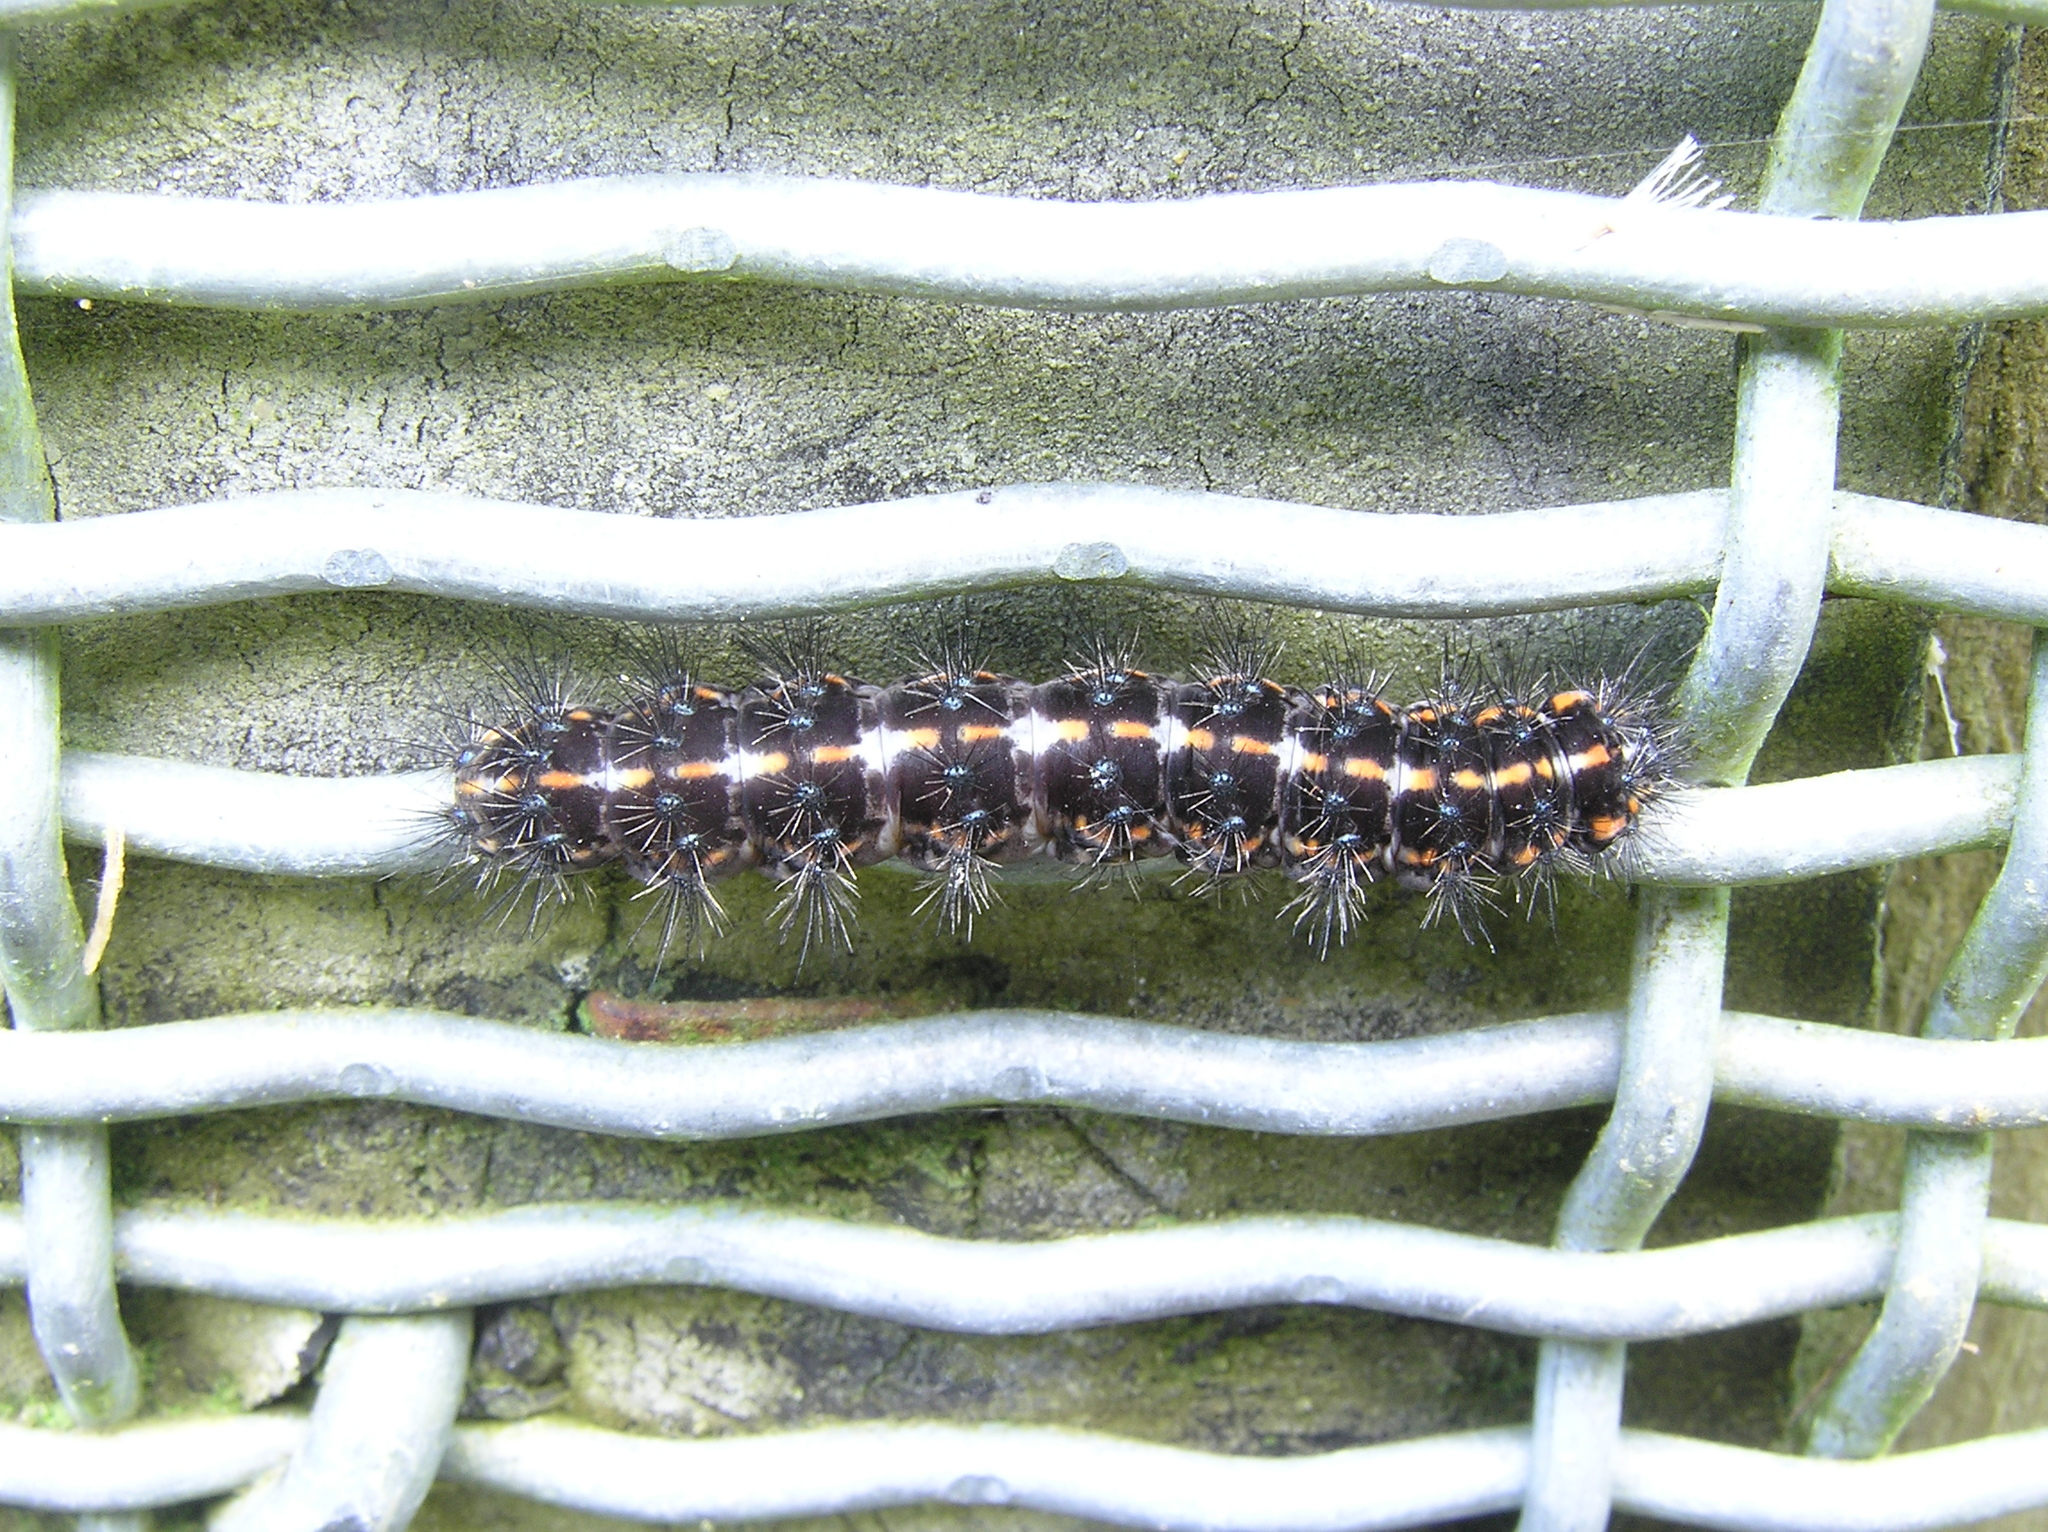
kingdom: Animalia
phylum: Arthropoda
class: Insecta
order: Lepidoptera
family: Erebidae
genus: Nyctemera
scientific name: Nyctemera annulatum
